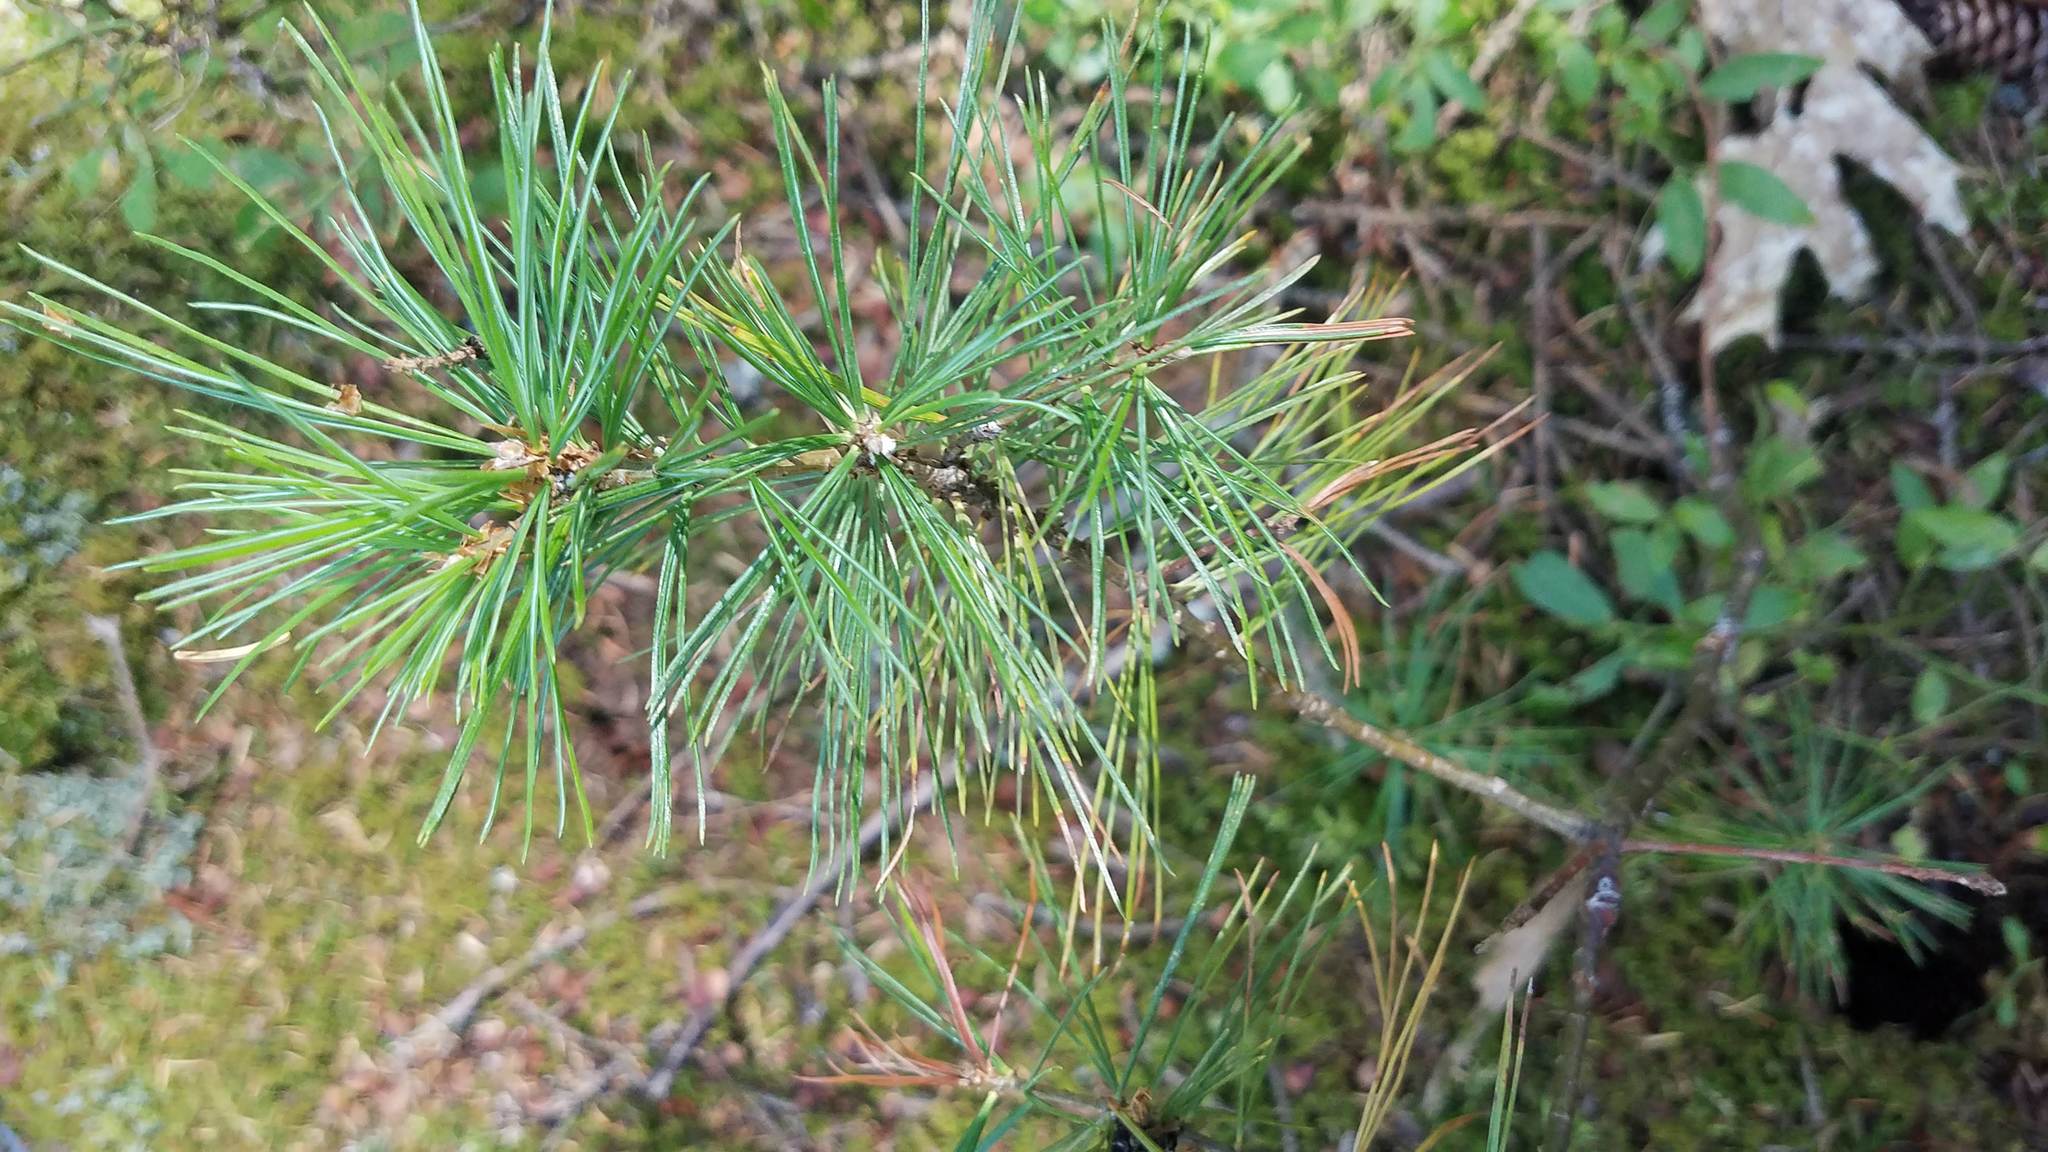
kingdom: Plantae
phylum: Tracheophyta
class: Pinopsida
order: Pinales
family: Pinaceae
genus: Pinus
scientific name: Pinus strobus
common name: Weymouth pine
